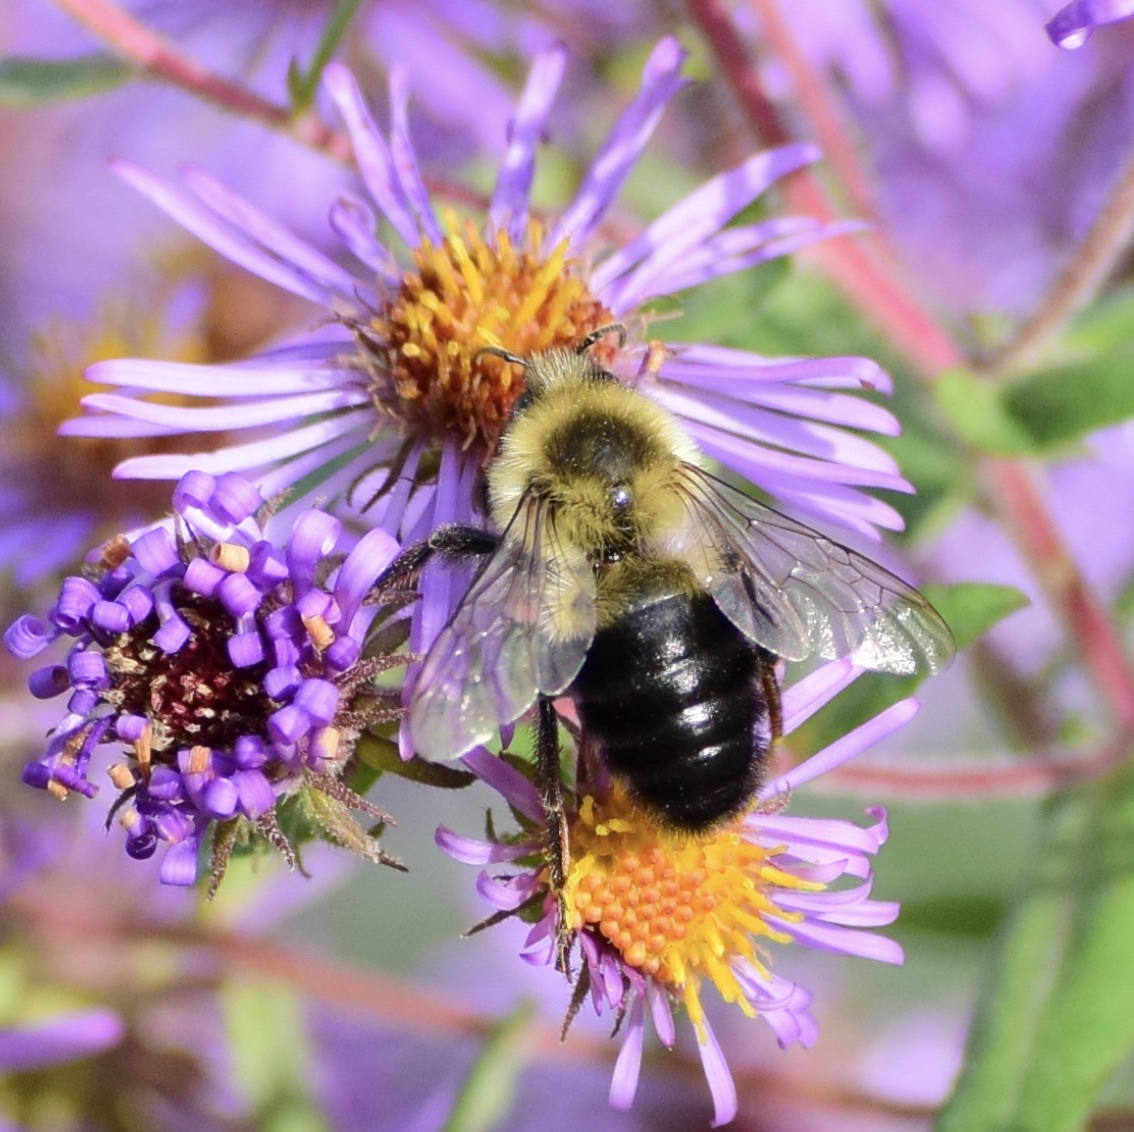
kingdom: Animalia
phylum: Arthropoda
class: Insecta
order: Hymenoptera
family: Apidae
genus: Bombus
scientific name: Bombus impatiens
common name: Common eastern bumble bee
